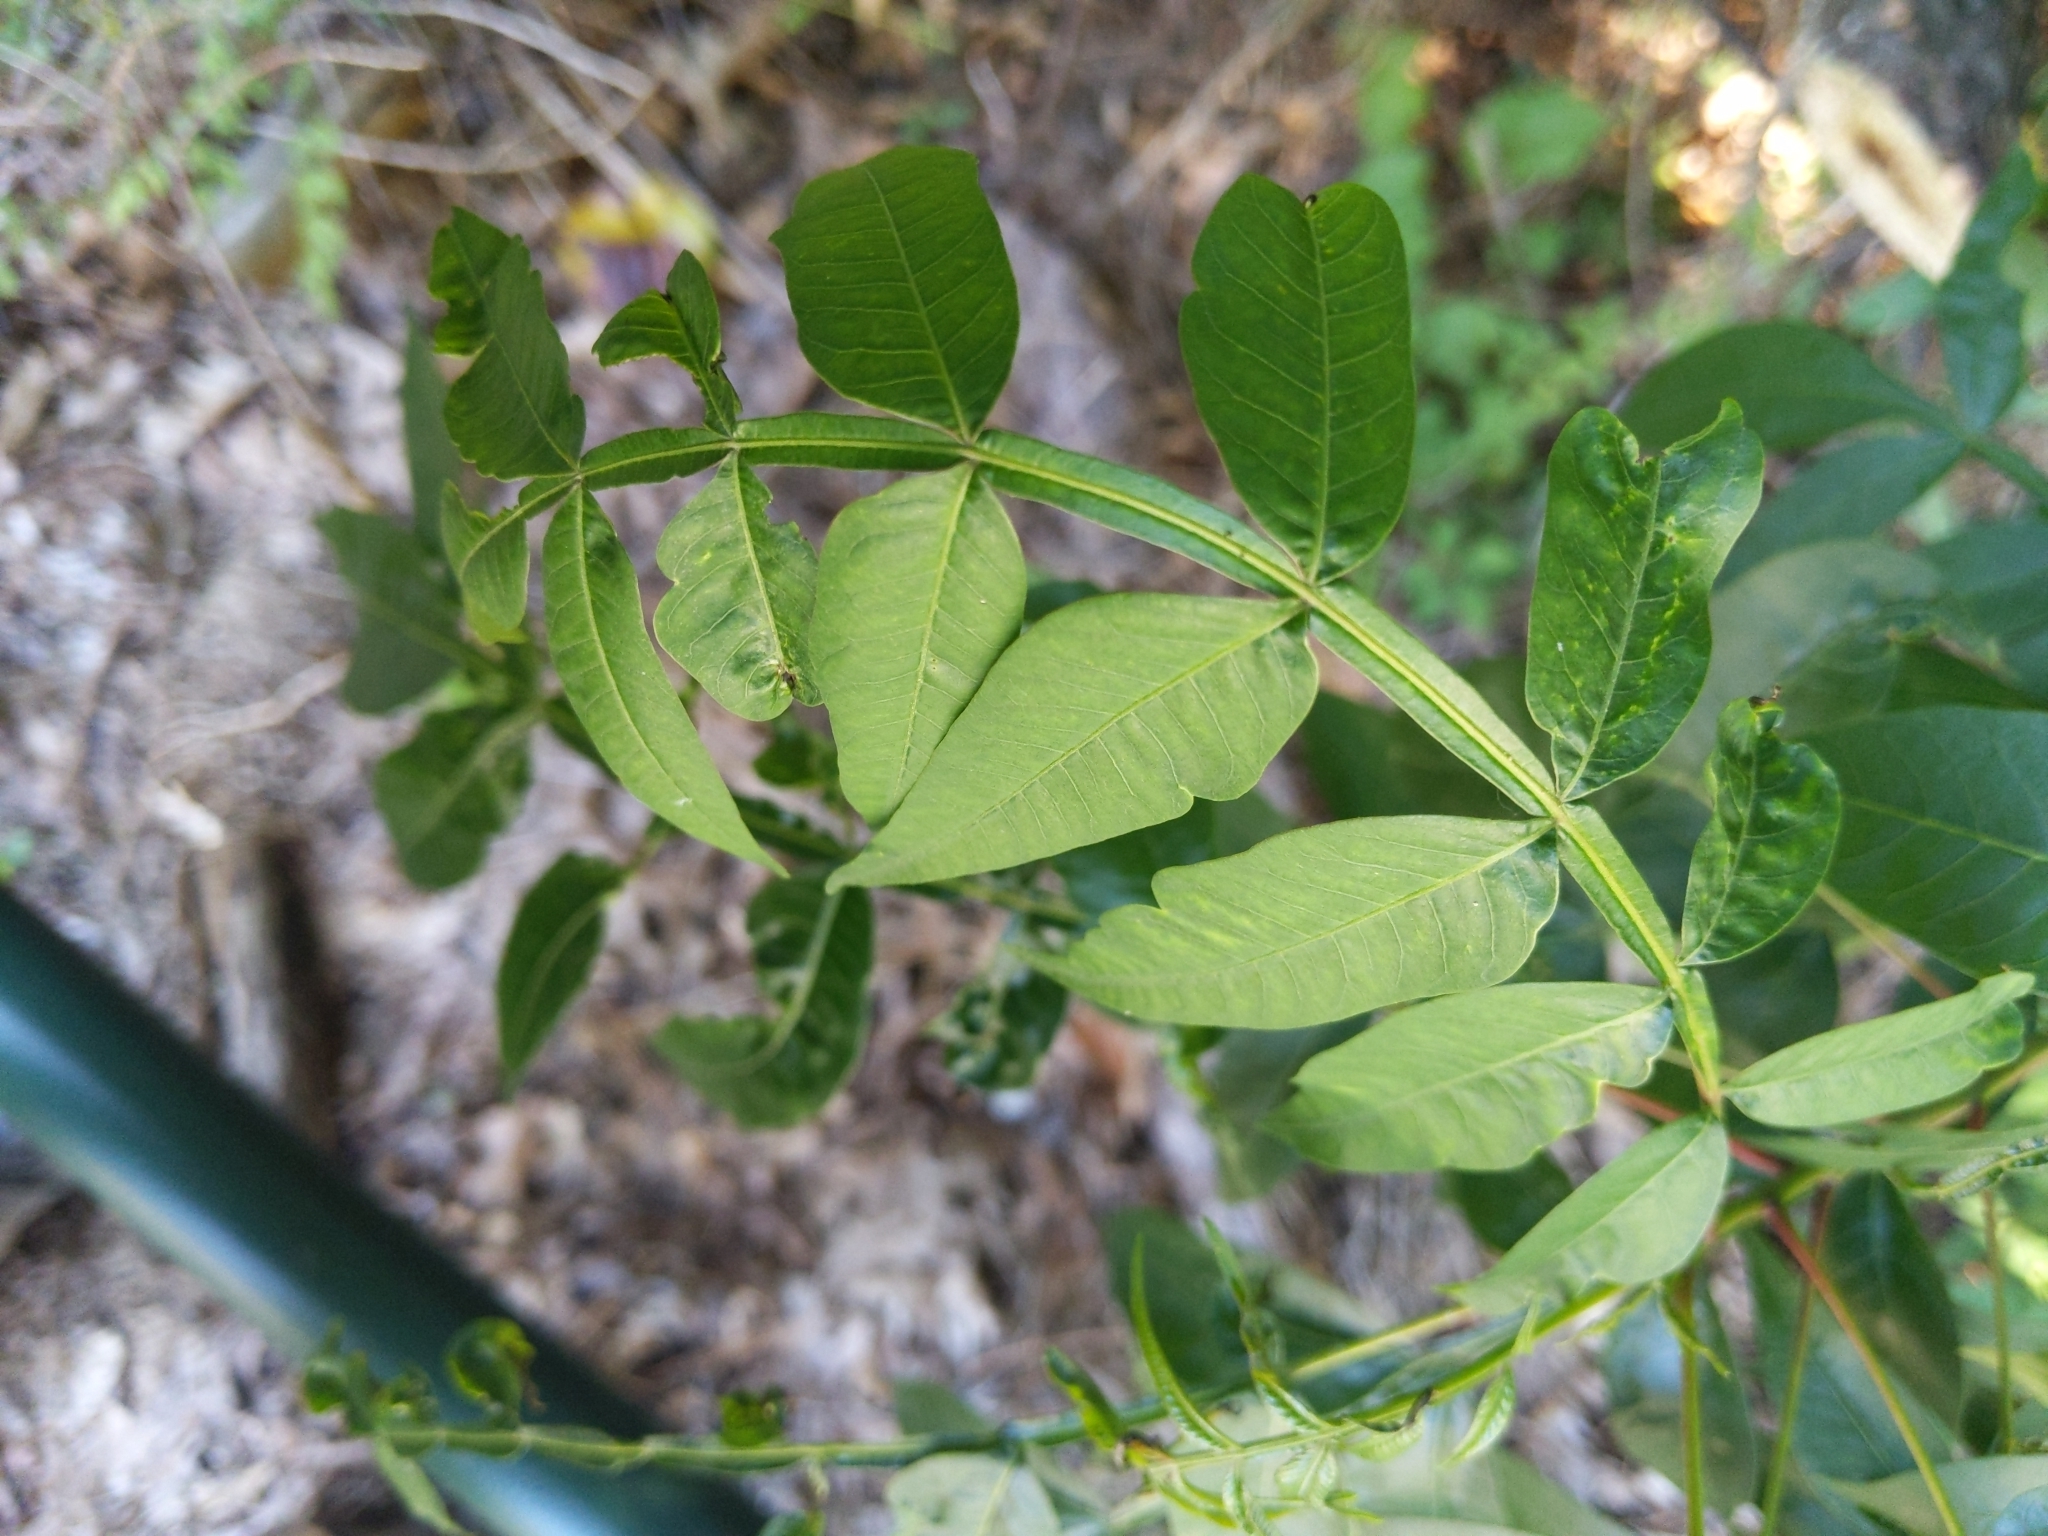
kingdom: Plantae
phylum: Tracheophyta
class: Magnoliopsida
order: Sapindales
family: Anacardiaceae
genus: Rhus
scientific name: Rhus copallina
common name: Shining sumac
